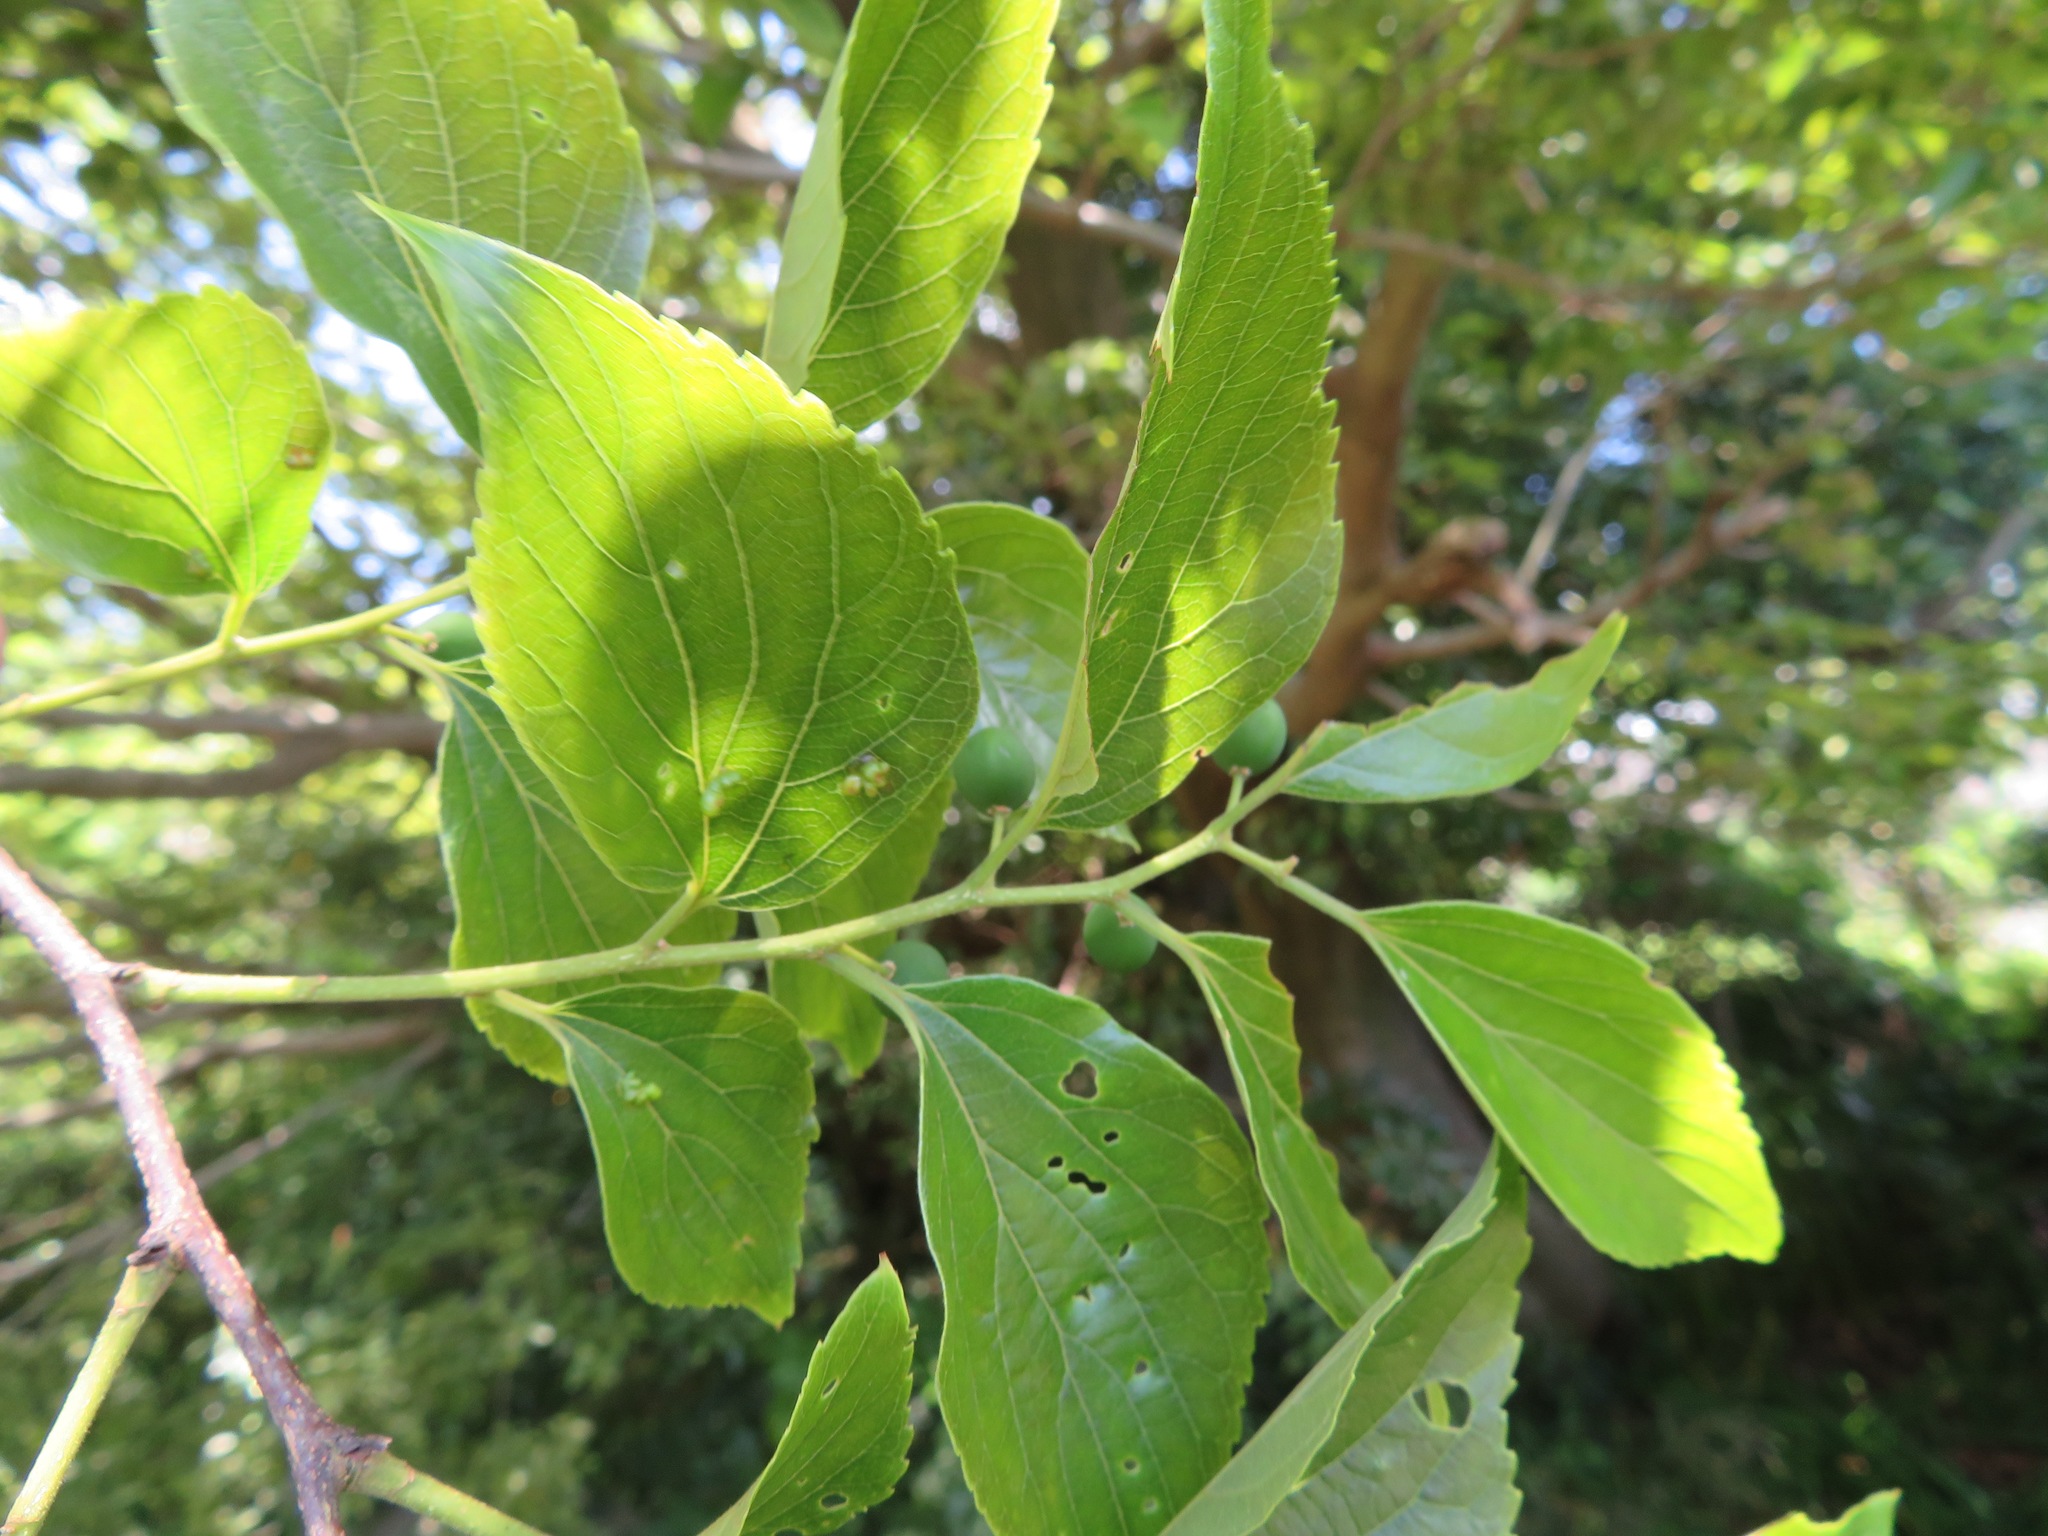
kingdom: Plantae
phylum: Tracheophyta
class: Magnoliopsida
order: Rosales
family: Cannabaceae
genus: Celtis
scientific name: Celtis sinensis
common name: Chinese hackberry
